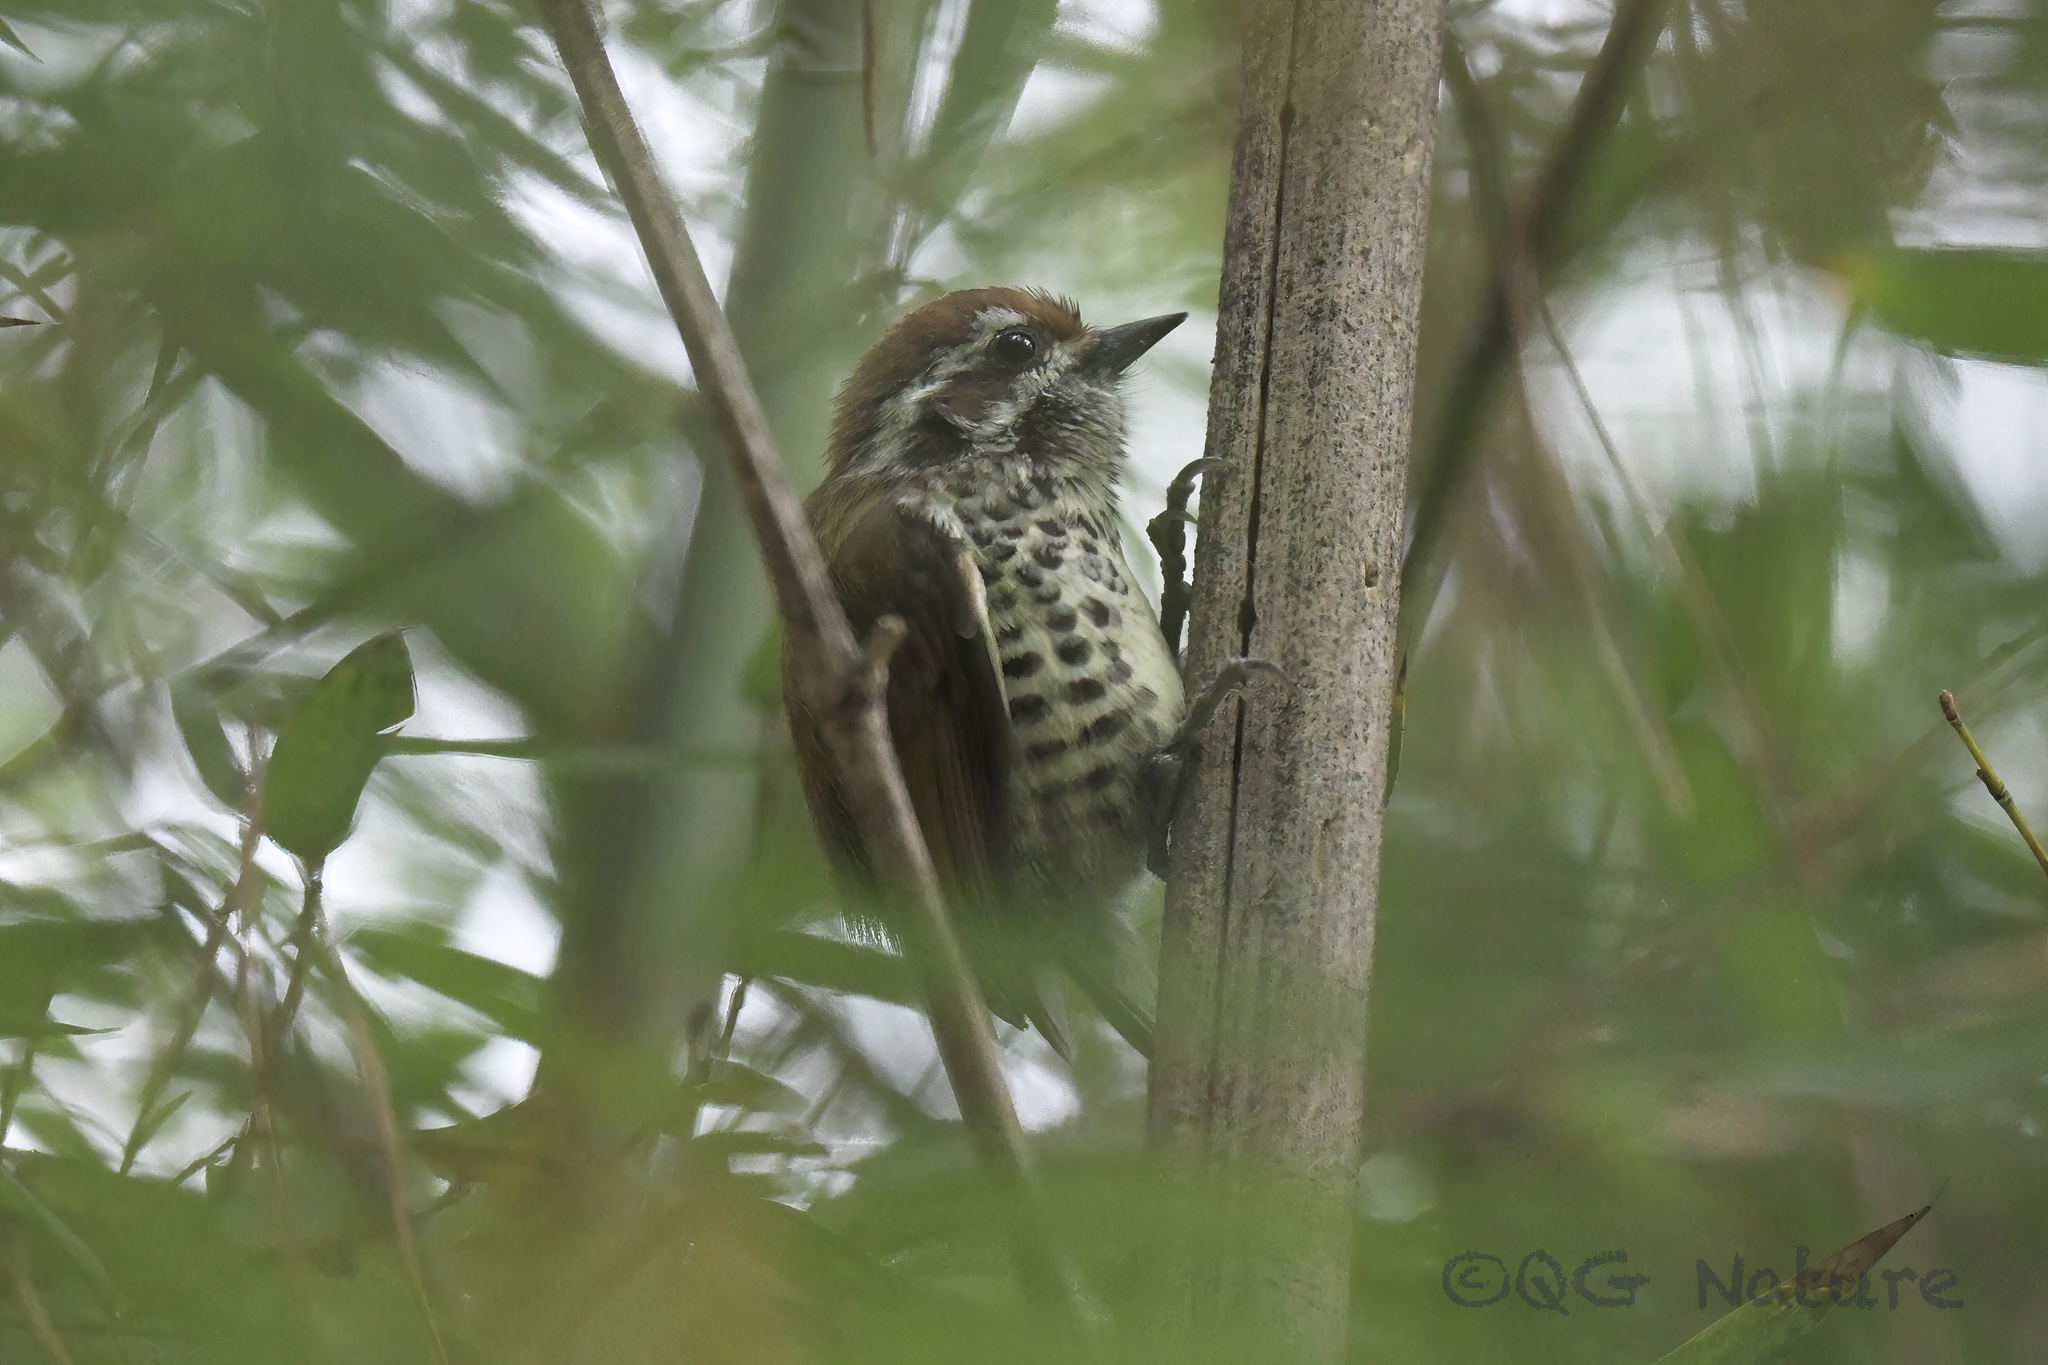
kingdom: Animalia
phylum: Chordata
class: Aves
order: Piciformes
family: Picidae
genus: Picumnus
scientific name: Picumnus innominatus
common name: Speckled piculet
